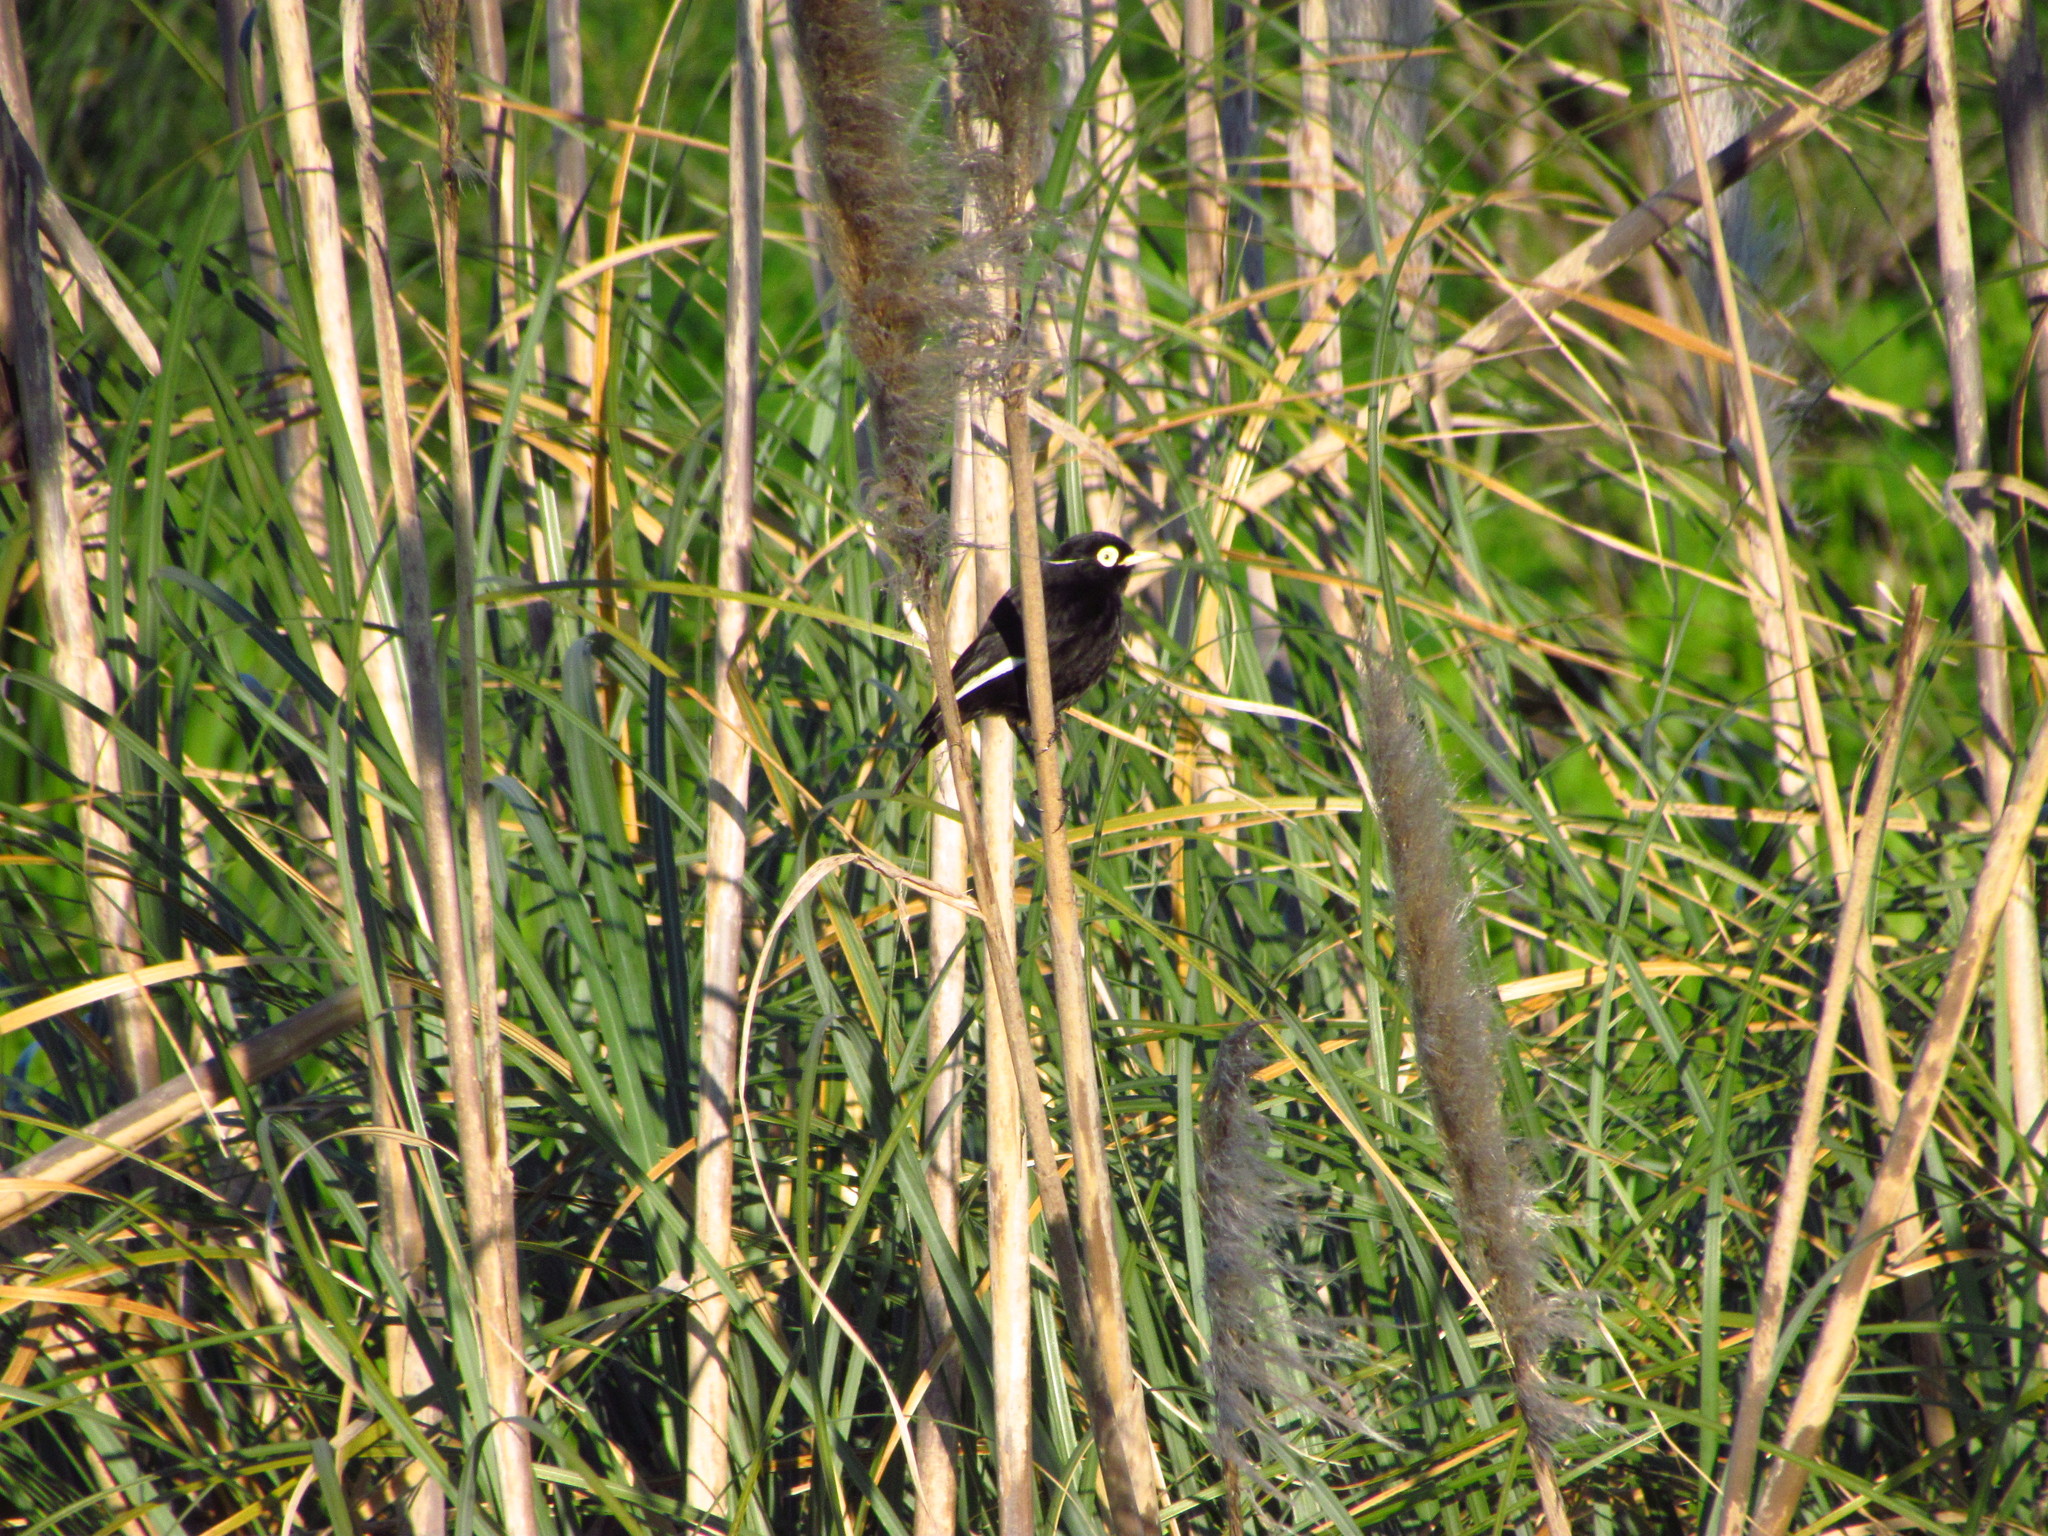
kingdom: Animalia
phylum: Chordata
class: Aves
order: Passeriformes
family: Tyrannidae
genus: Hymenops
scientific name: Hymenops perspicillatus
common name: Spectacled tyrant
